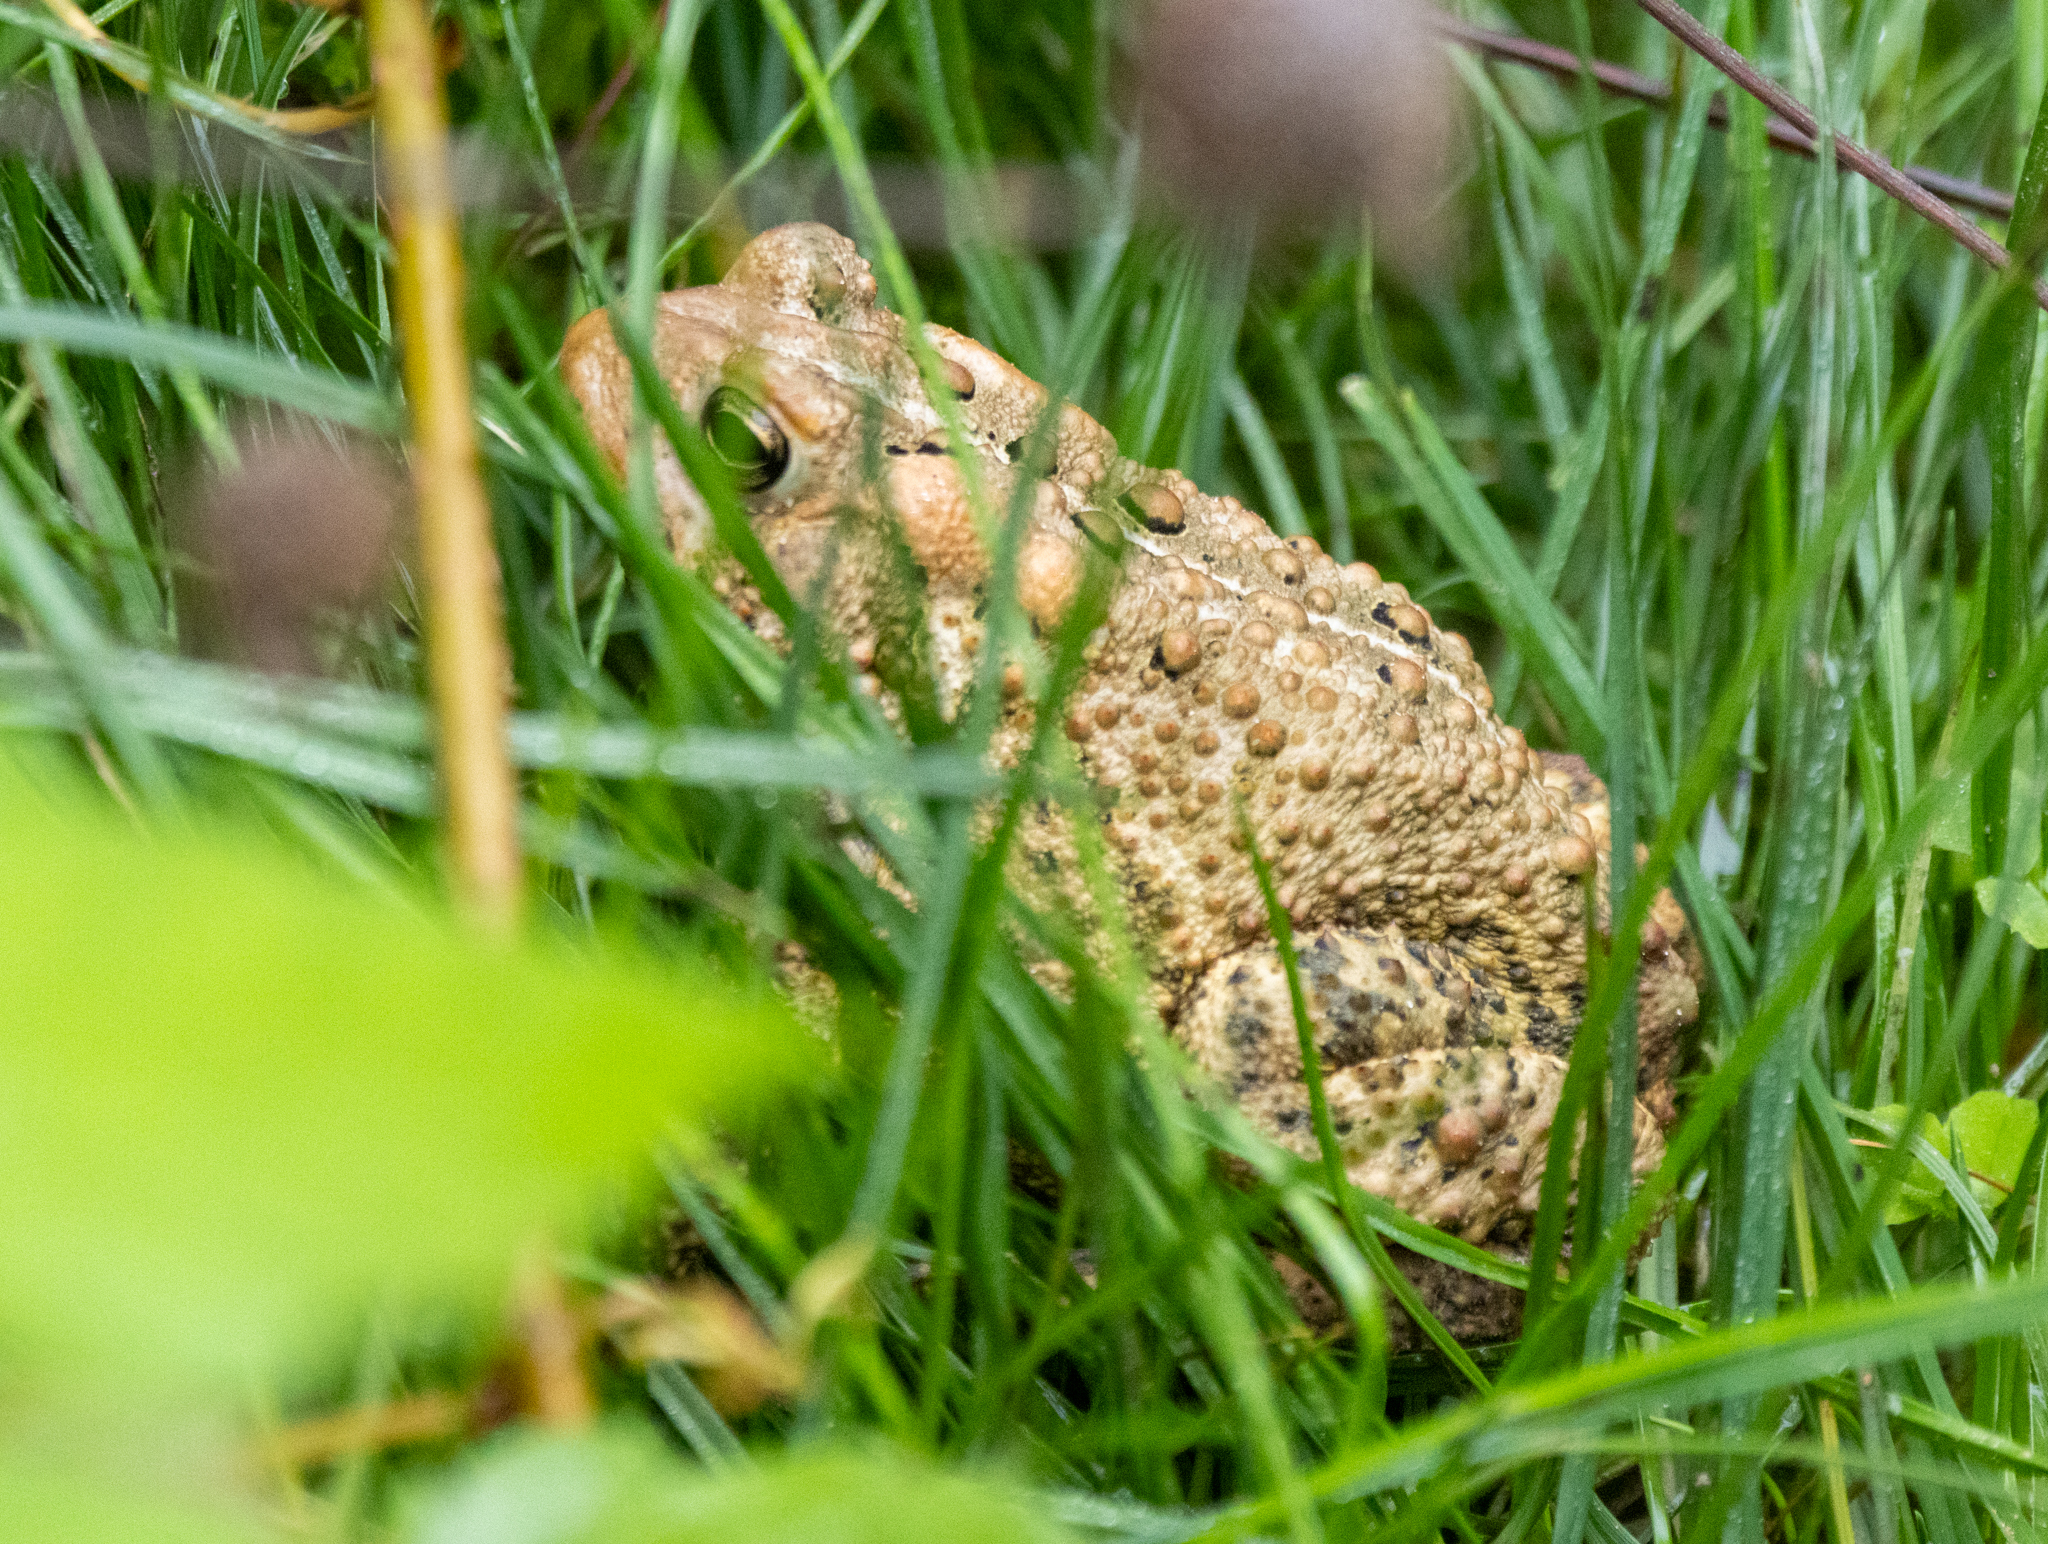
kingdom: Animalia
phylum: Chordata
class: Amphibia
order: Anura
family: Bufonidae
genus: Anaxyrus
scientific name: Anaxyrus americanus
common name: American toad
